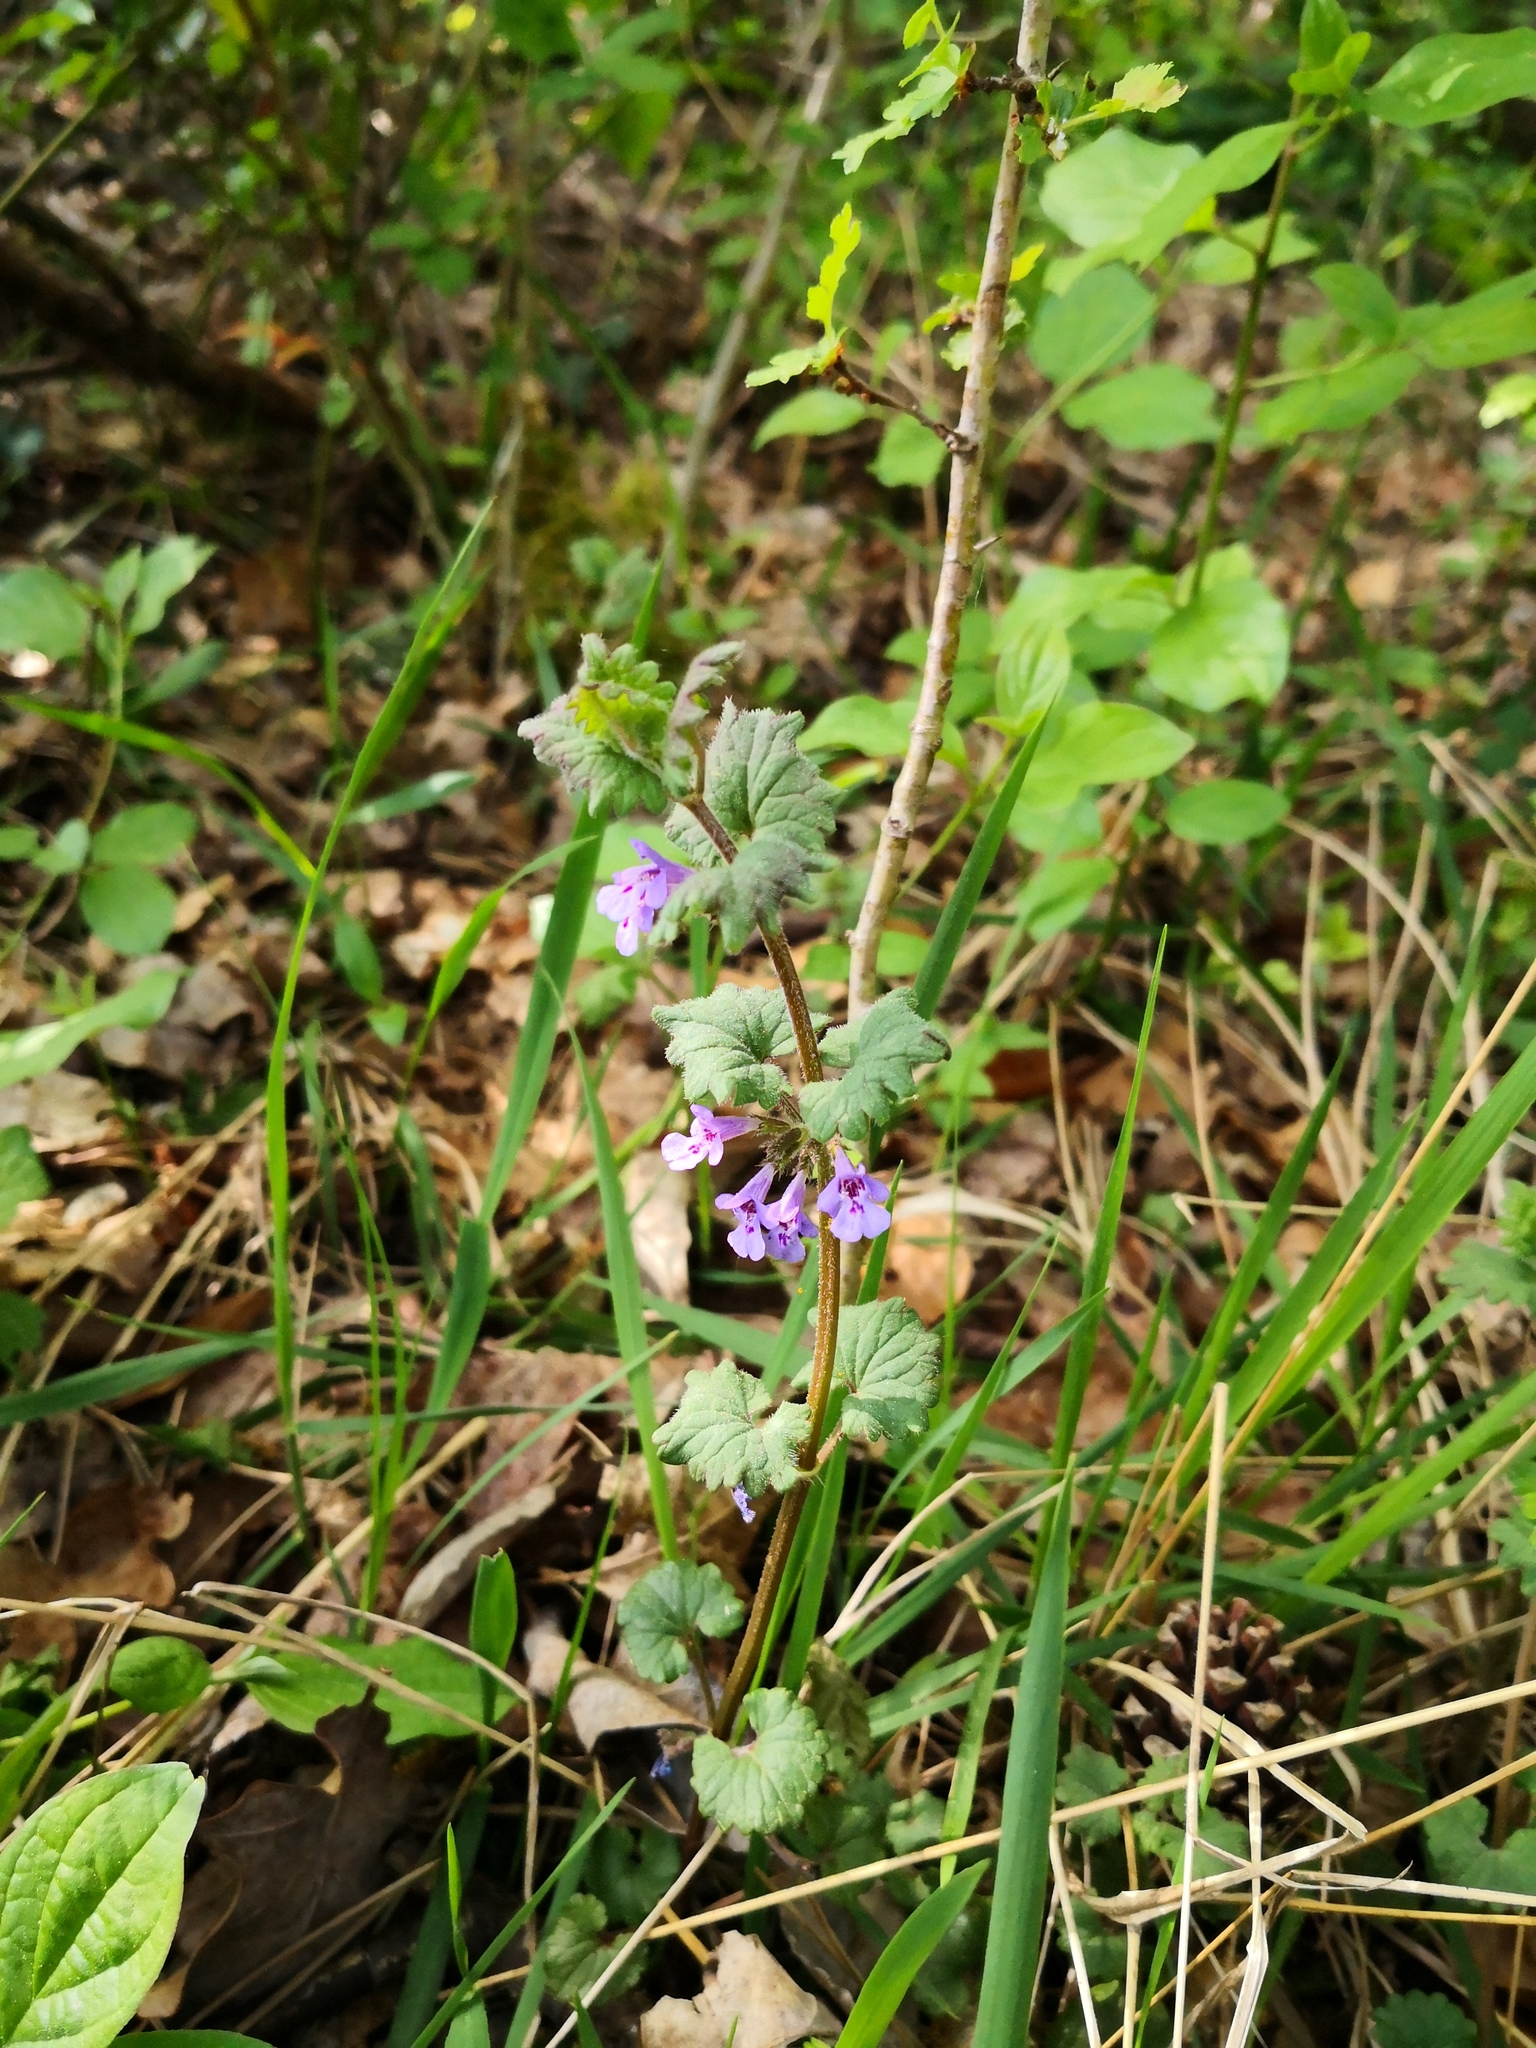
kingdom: Plantae
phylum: Tracheophyta
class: Magnoliopsida
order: Lamiales
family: Lamiaceae
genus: Glechoma
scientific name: Glechoma hederacea
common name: Ground ivy
